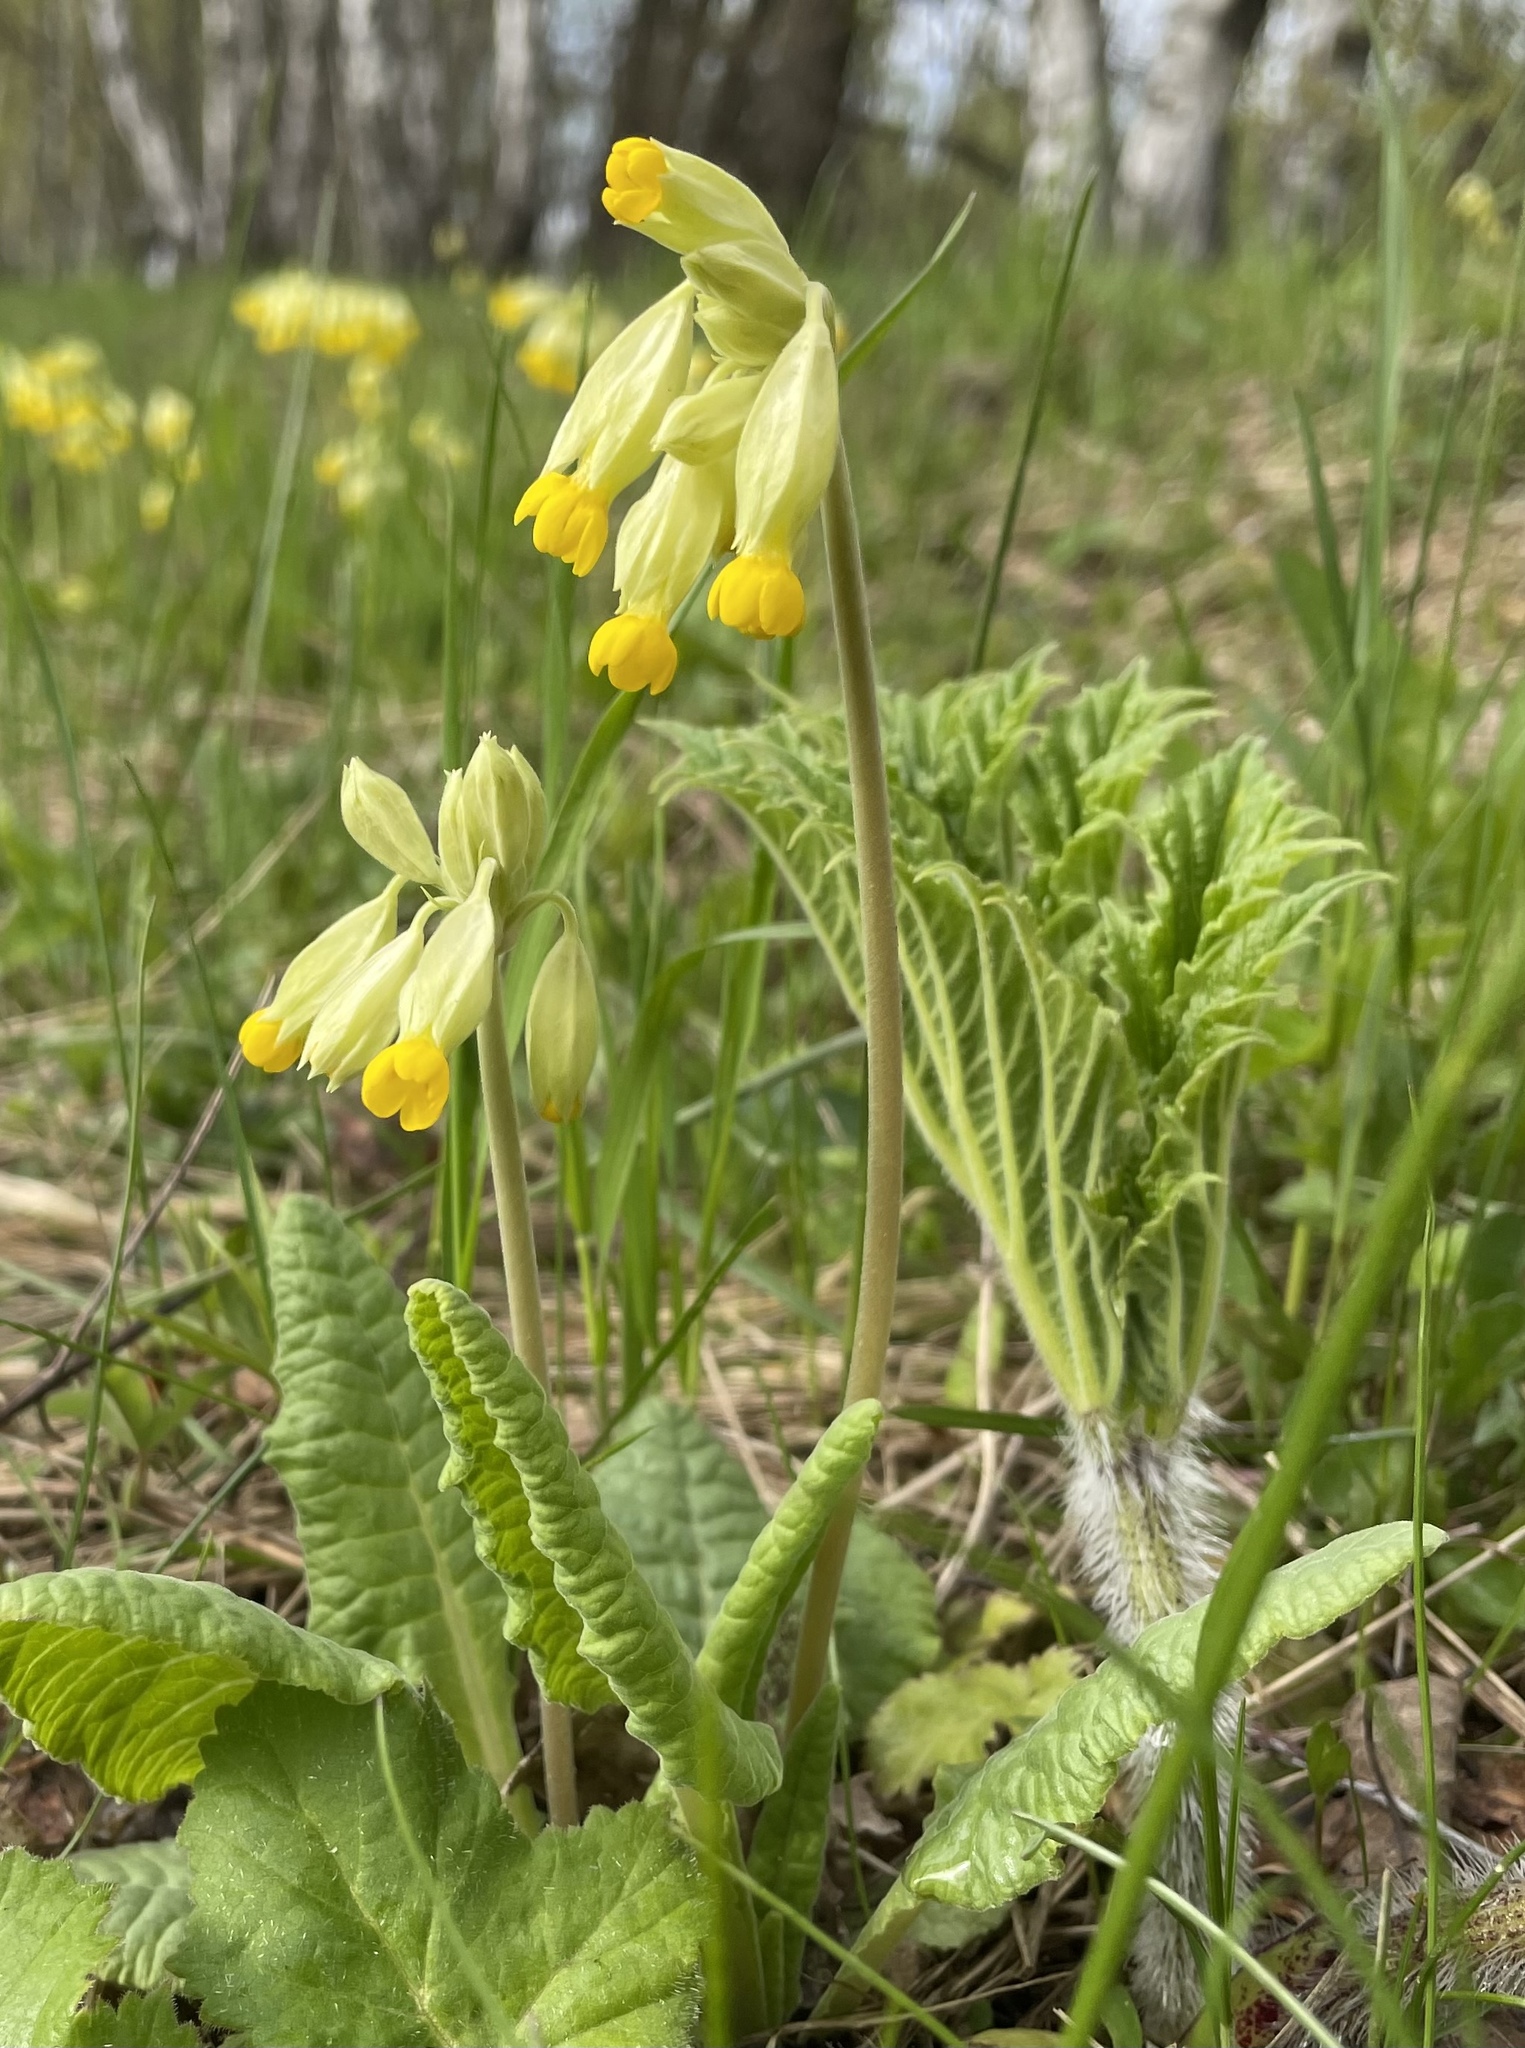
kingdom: Plantae
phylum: Tracheophyta
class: Magnoliopsida
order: Ericales
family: Primulaceae
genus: Primula
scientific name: Primula veris
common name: Cowslip
